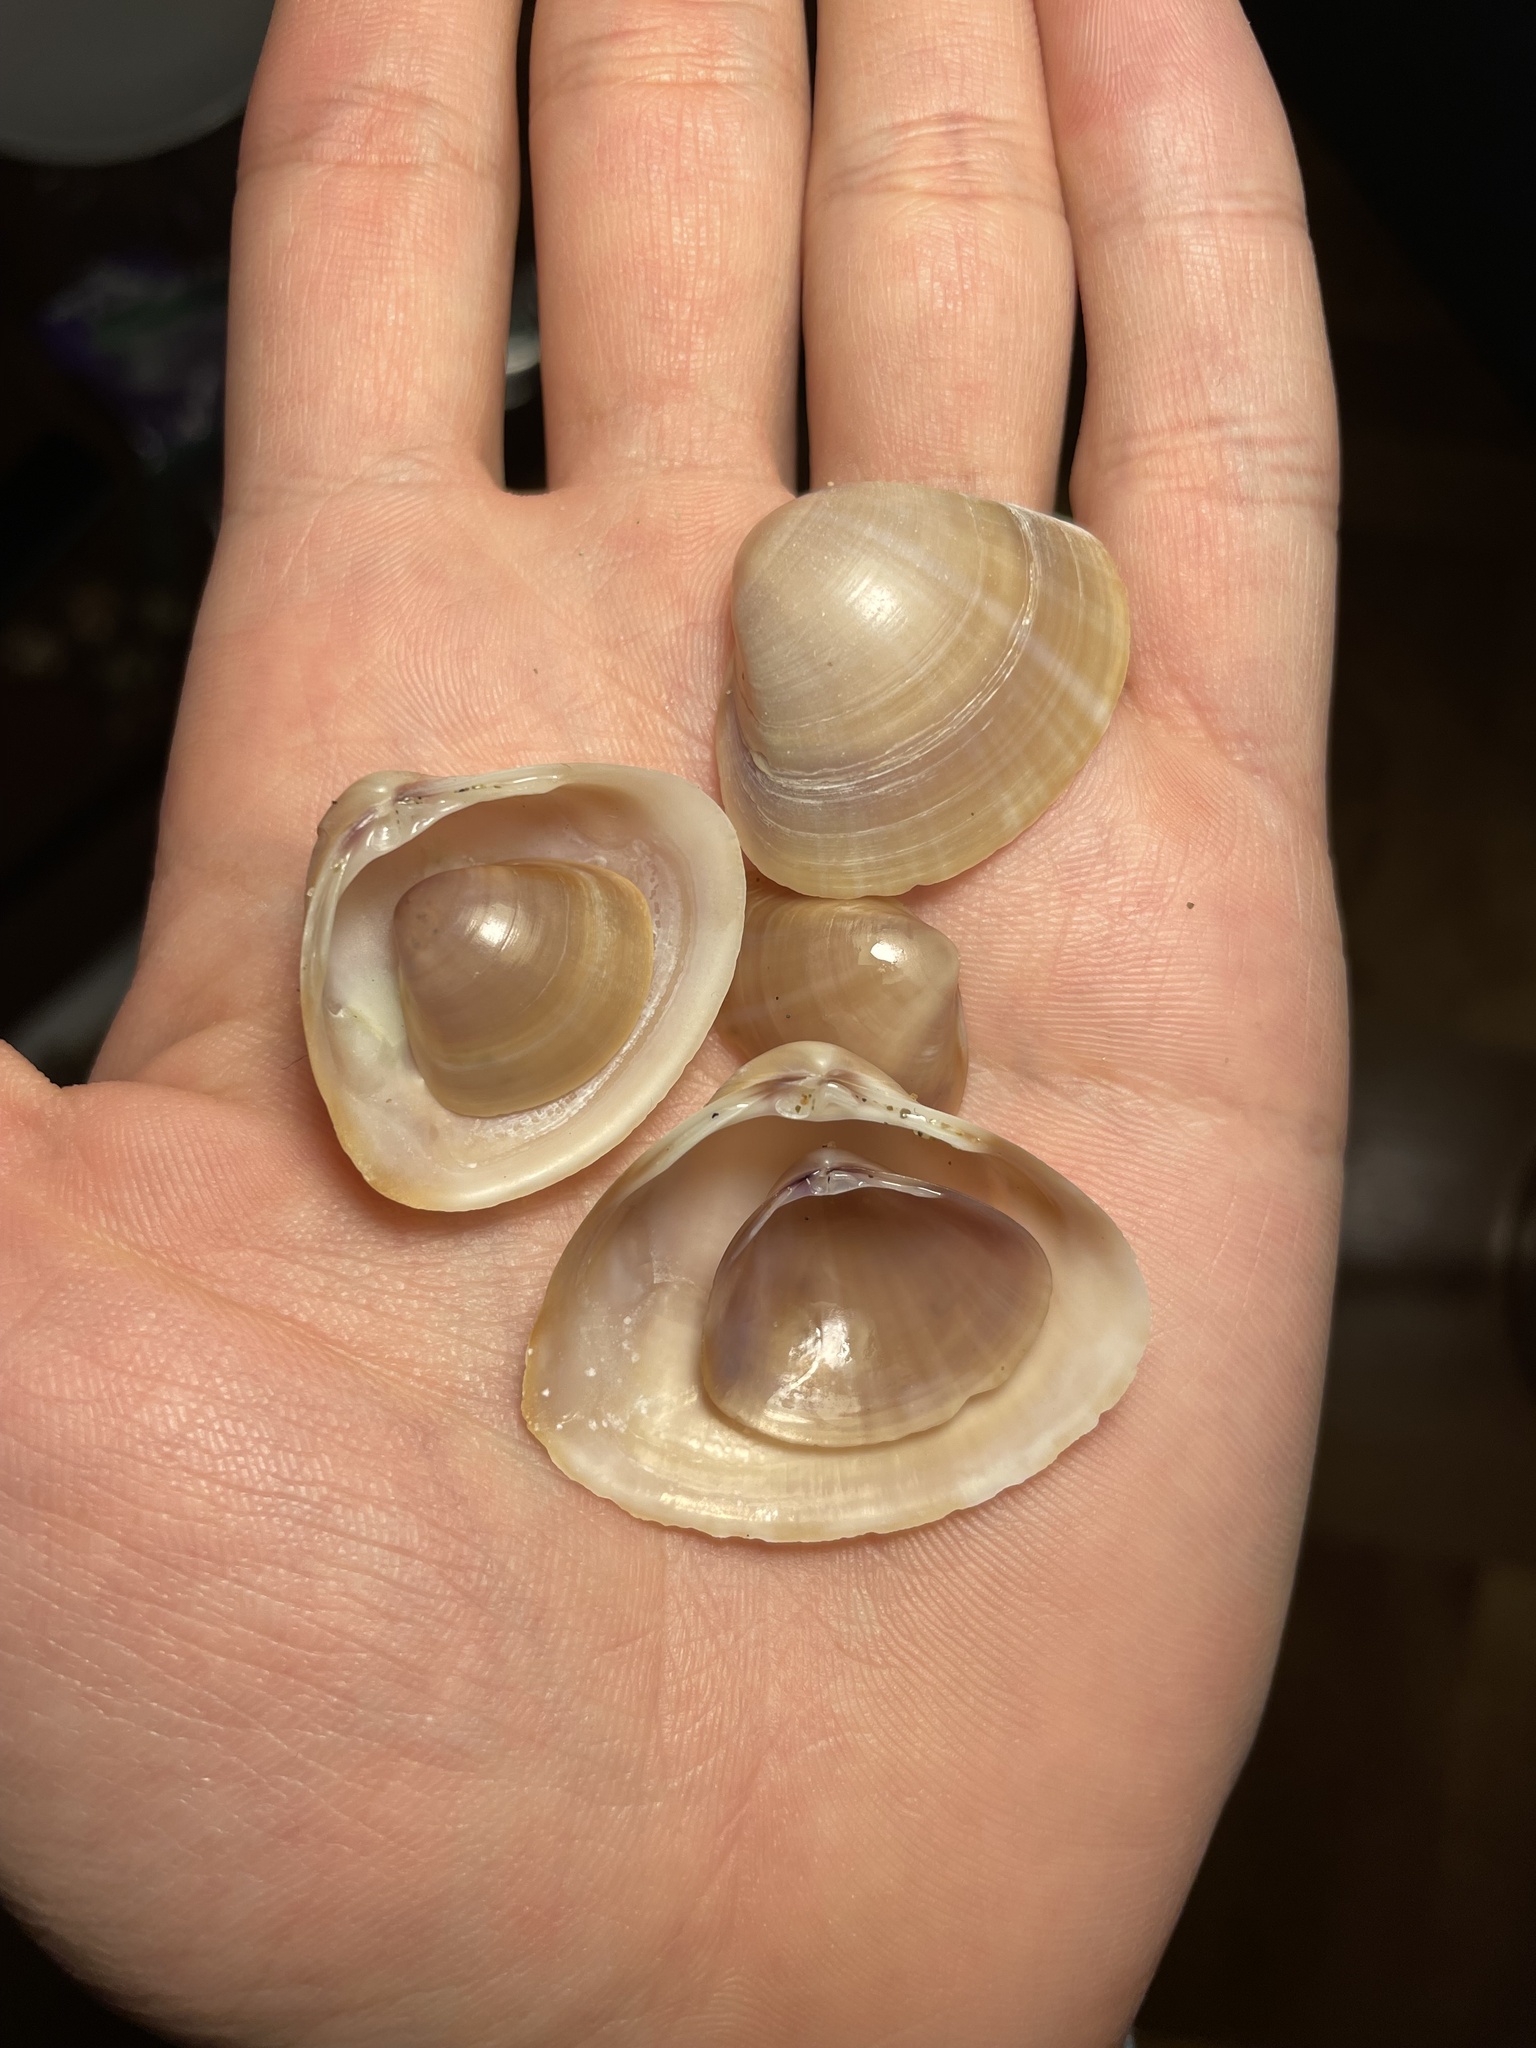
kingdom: Animalia
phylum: Mollusca
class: Bivalvia
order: Venerida
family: Mactridae
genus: Mactra
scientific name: Mactra stultorum
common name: Rayed trough shell
